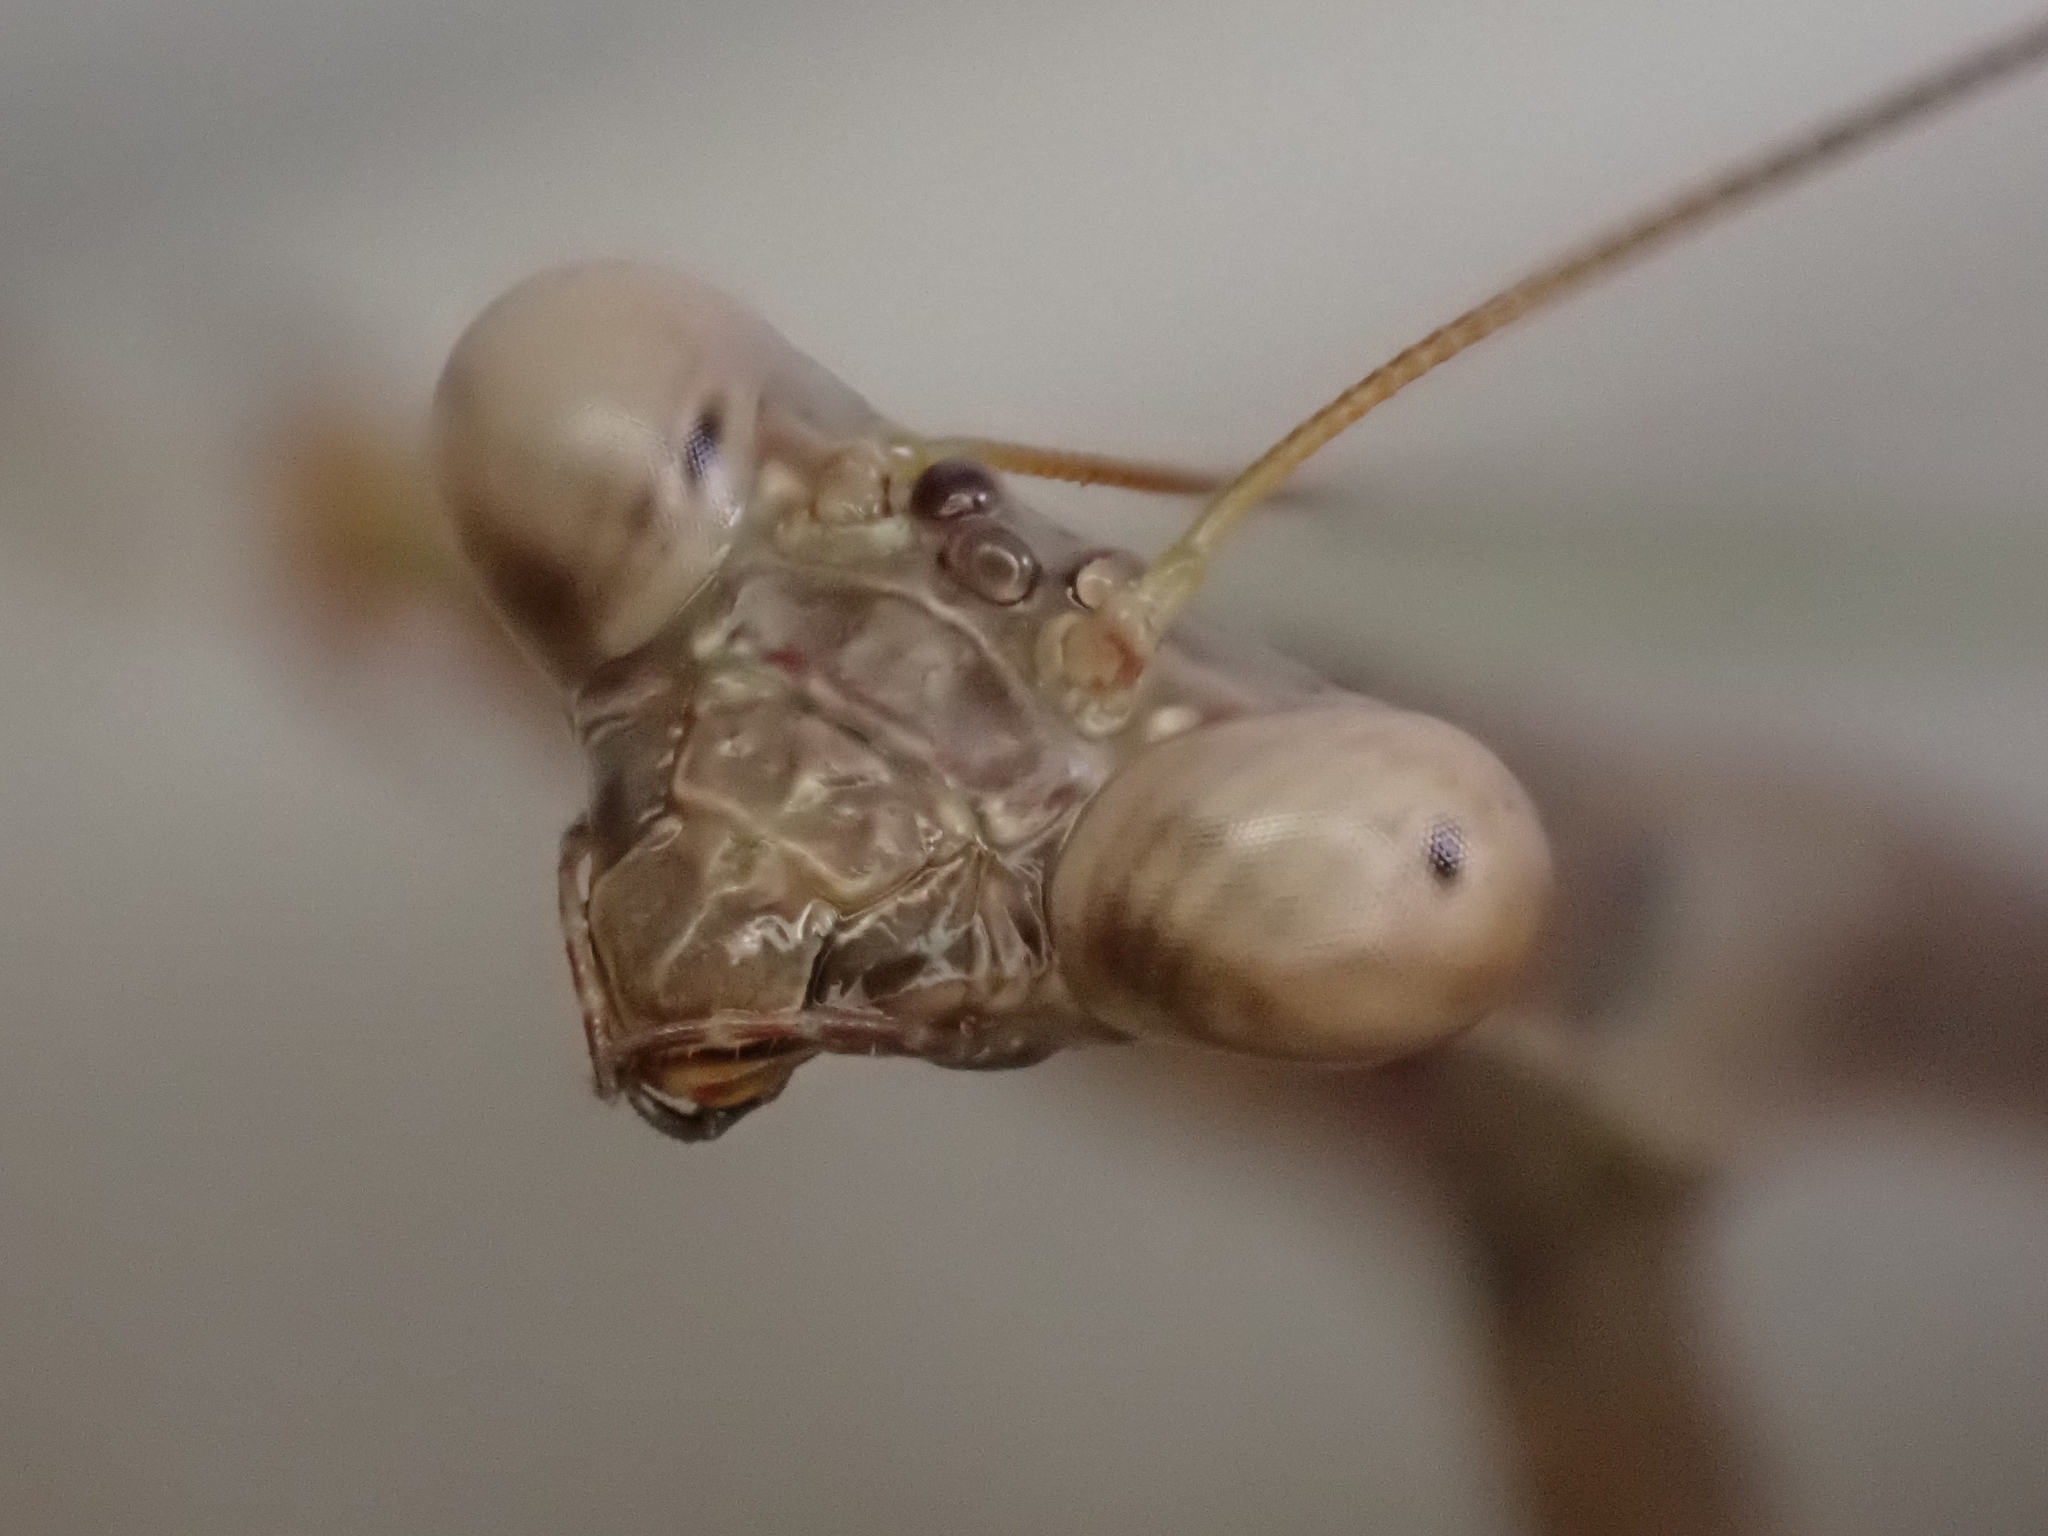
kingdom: Animalia
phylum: Arthropoda
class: Insecta
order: Mantodea
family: Mantidae
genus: Stagmomantis
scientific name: Stagmomantis carolina
